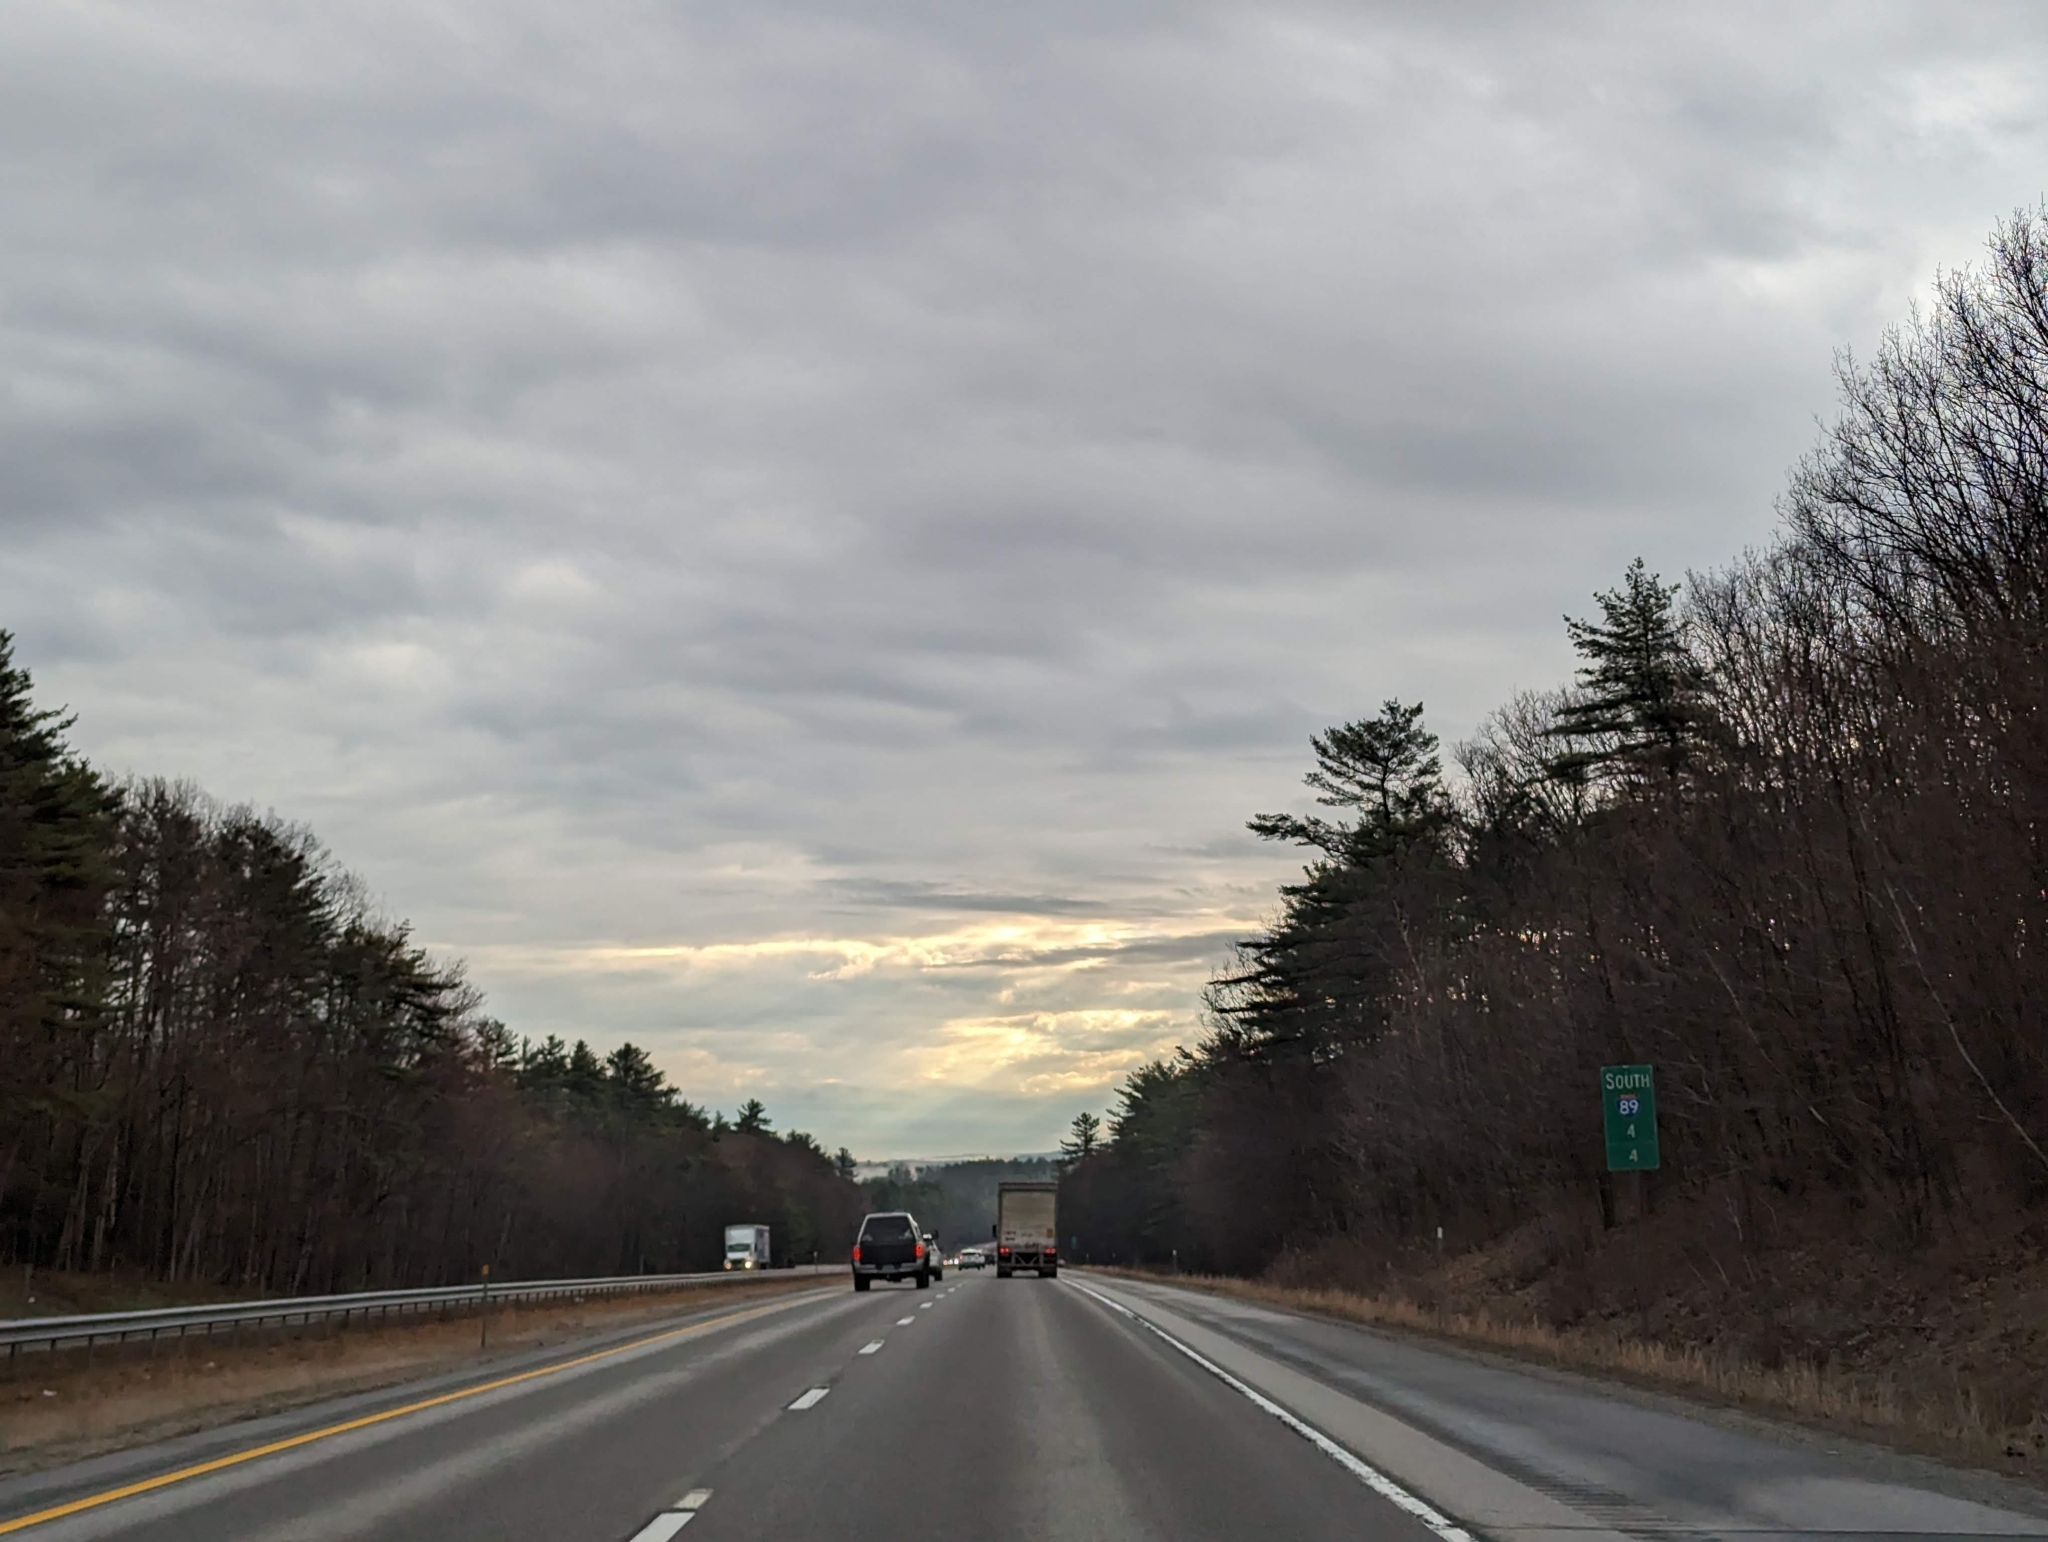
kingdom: Plantae
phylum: Tracheophyta
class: Pinopsida
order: Pinales
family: Pinaceae
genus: Pinus
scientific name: Pinus strobus
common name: Weymouth pine
